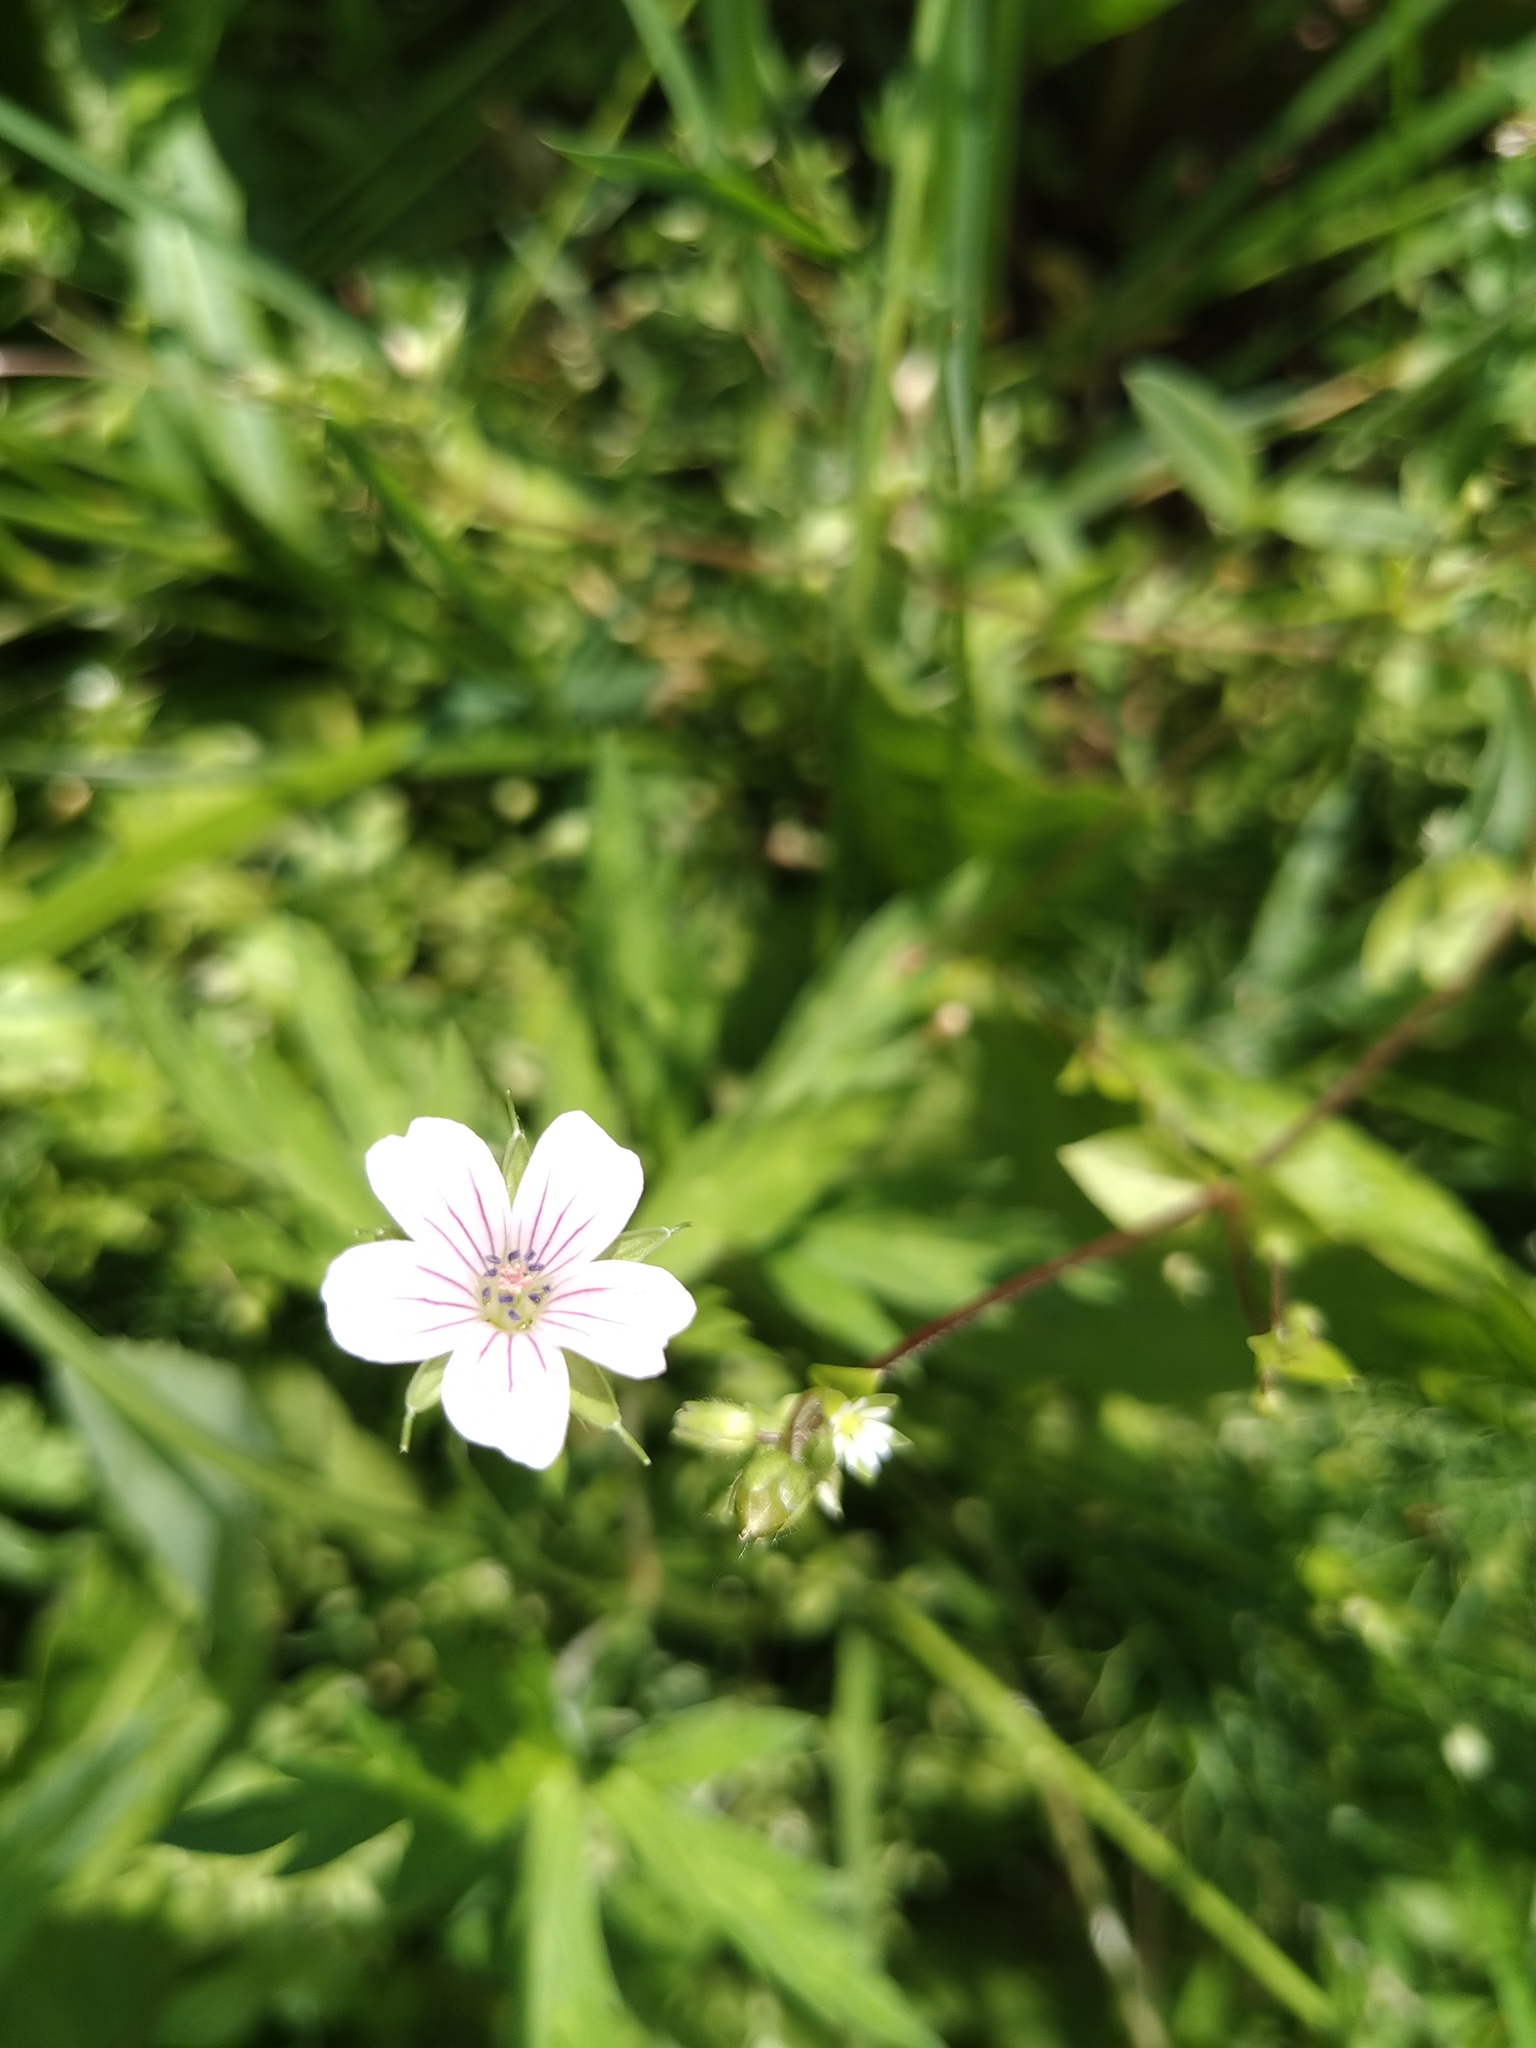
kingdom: Plantae
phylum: Tracheophyta
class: Magnoliopsida
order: Geraniales
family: Geraniaceae
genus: Geranium
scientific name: Geranium sibiricum
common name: Siberian crane's-bill
